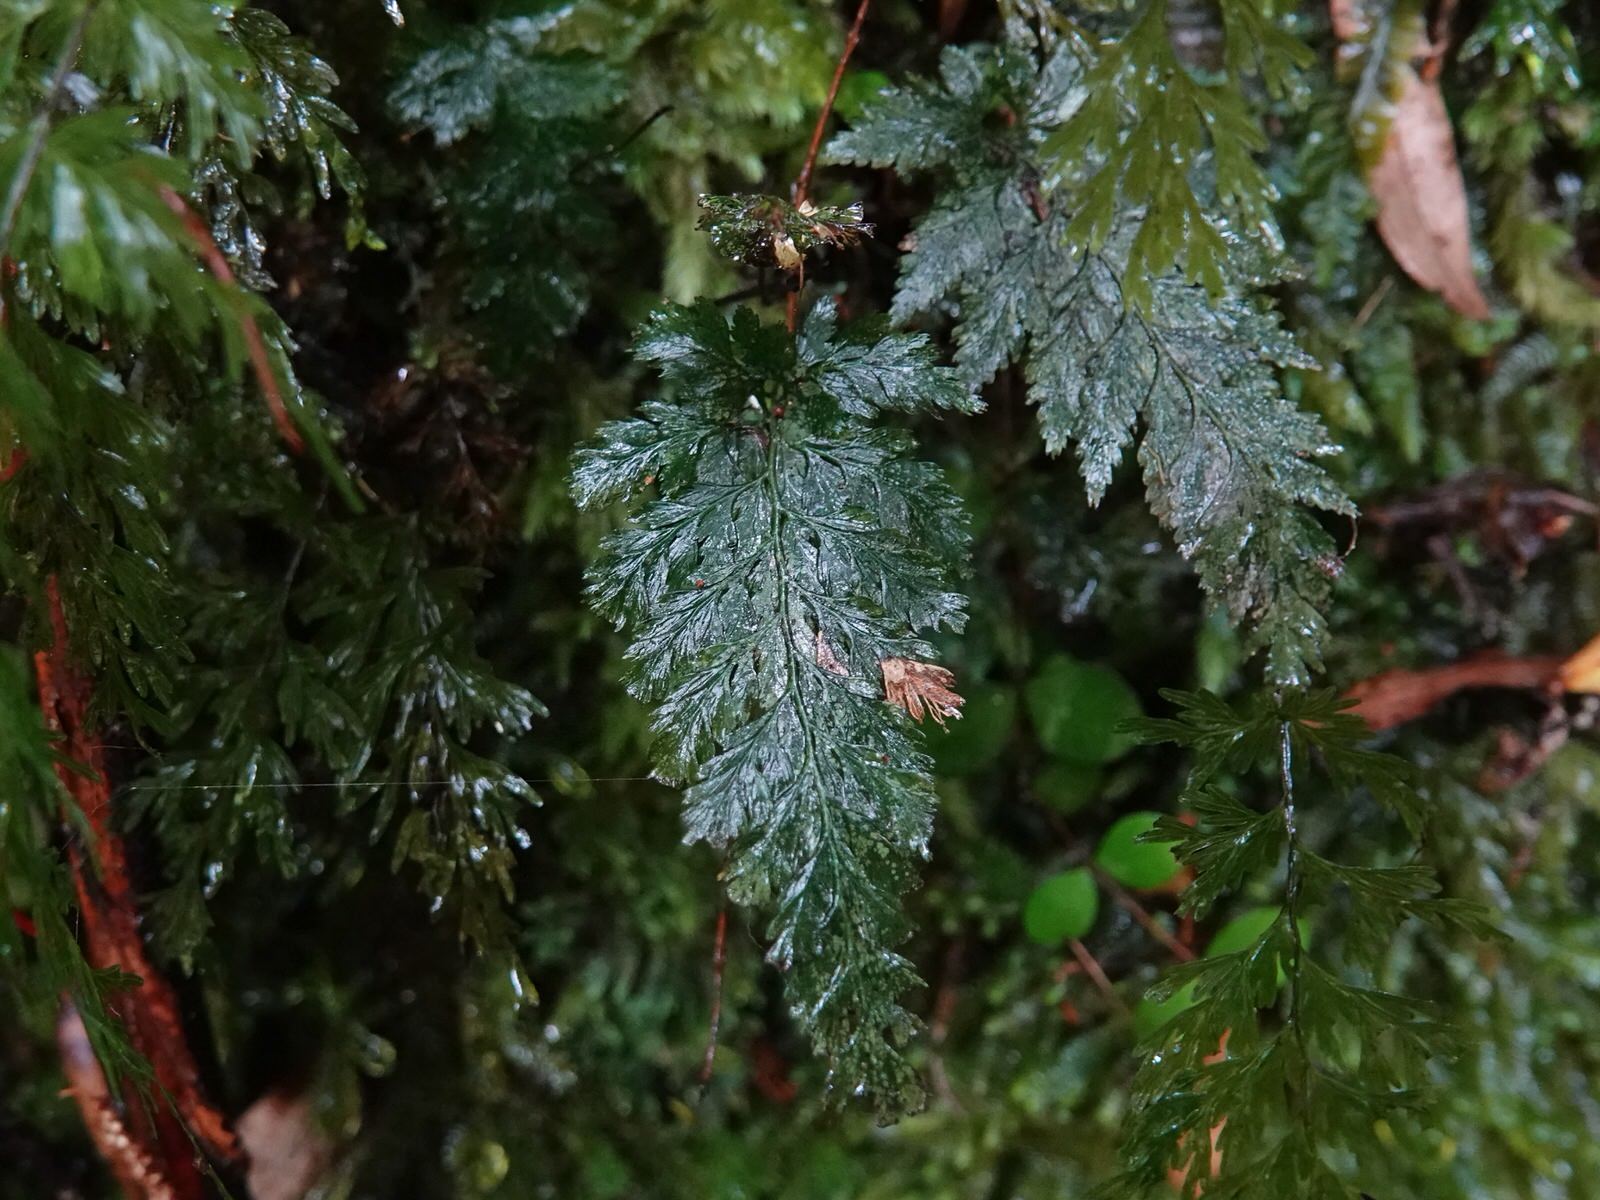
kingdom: Plantae
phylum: Tracheophyta
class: Polypodiopsida
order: Hymenophyllales
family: Hymenophyllaceae
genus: Abrodictyum
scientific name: Abrodictyum elongatum
